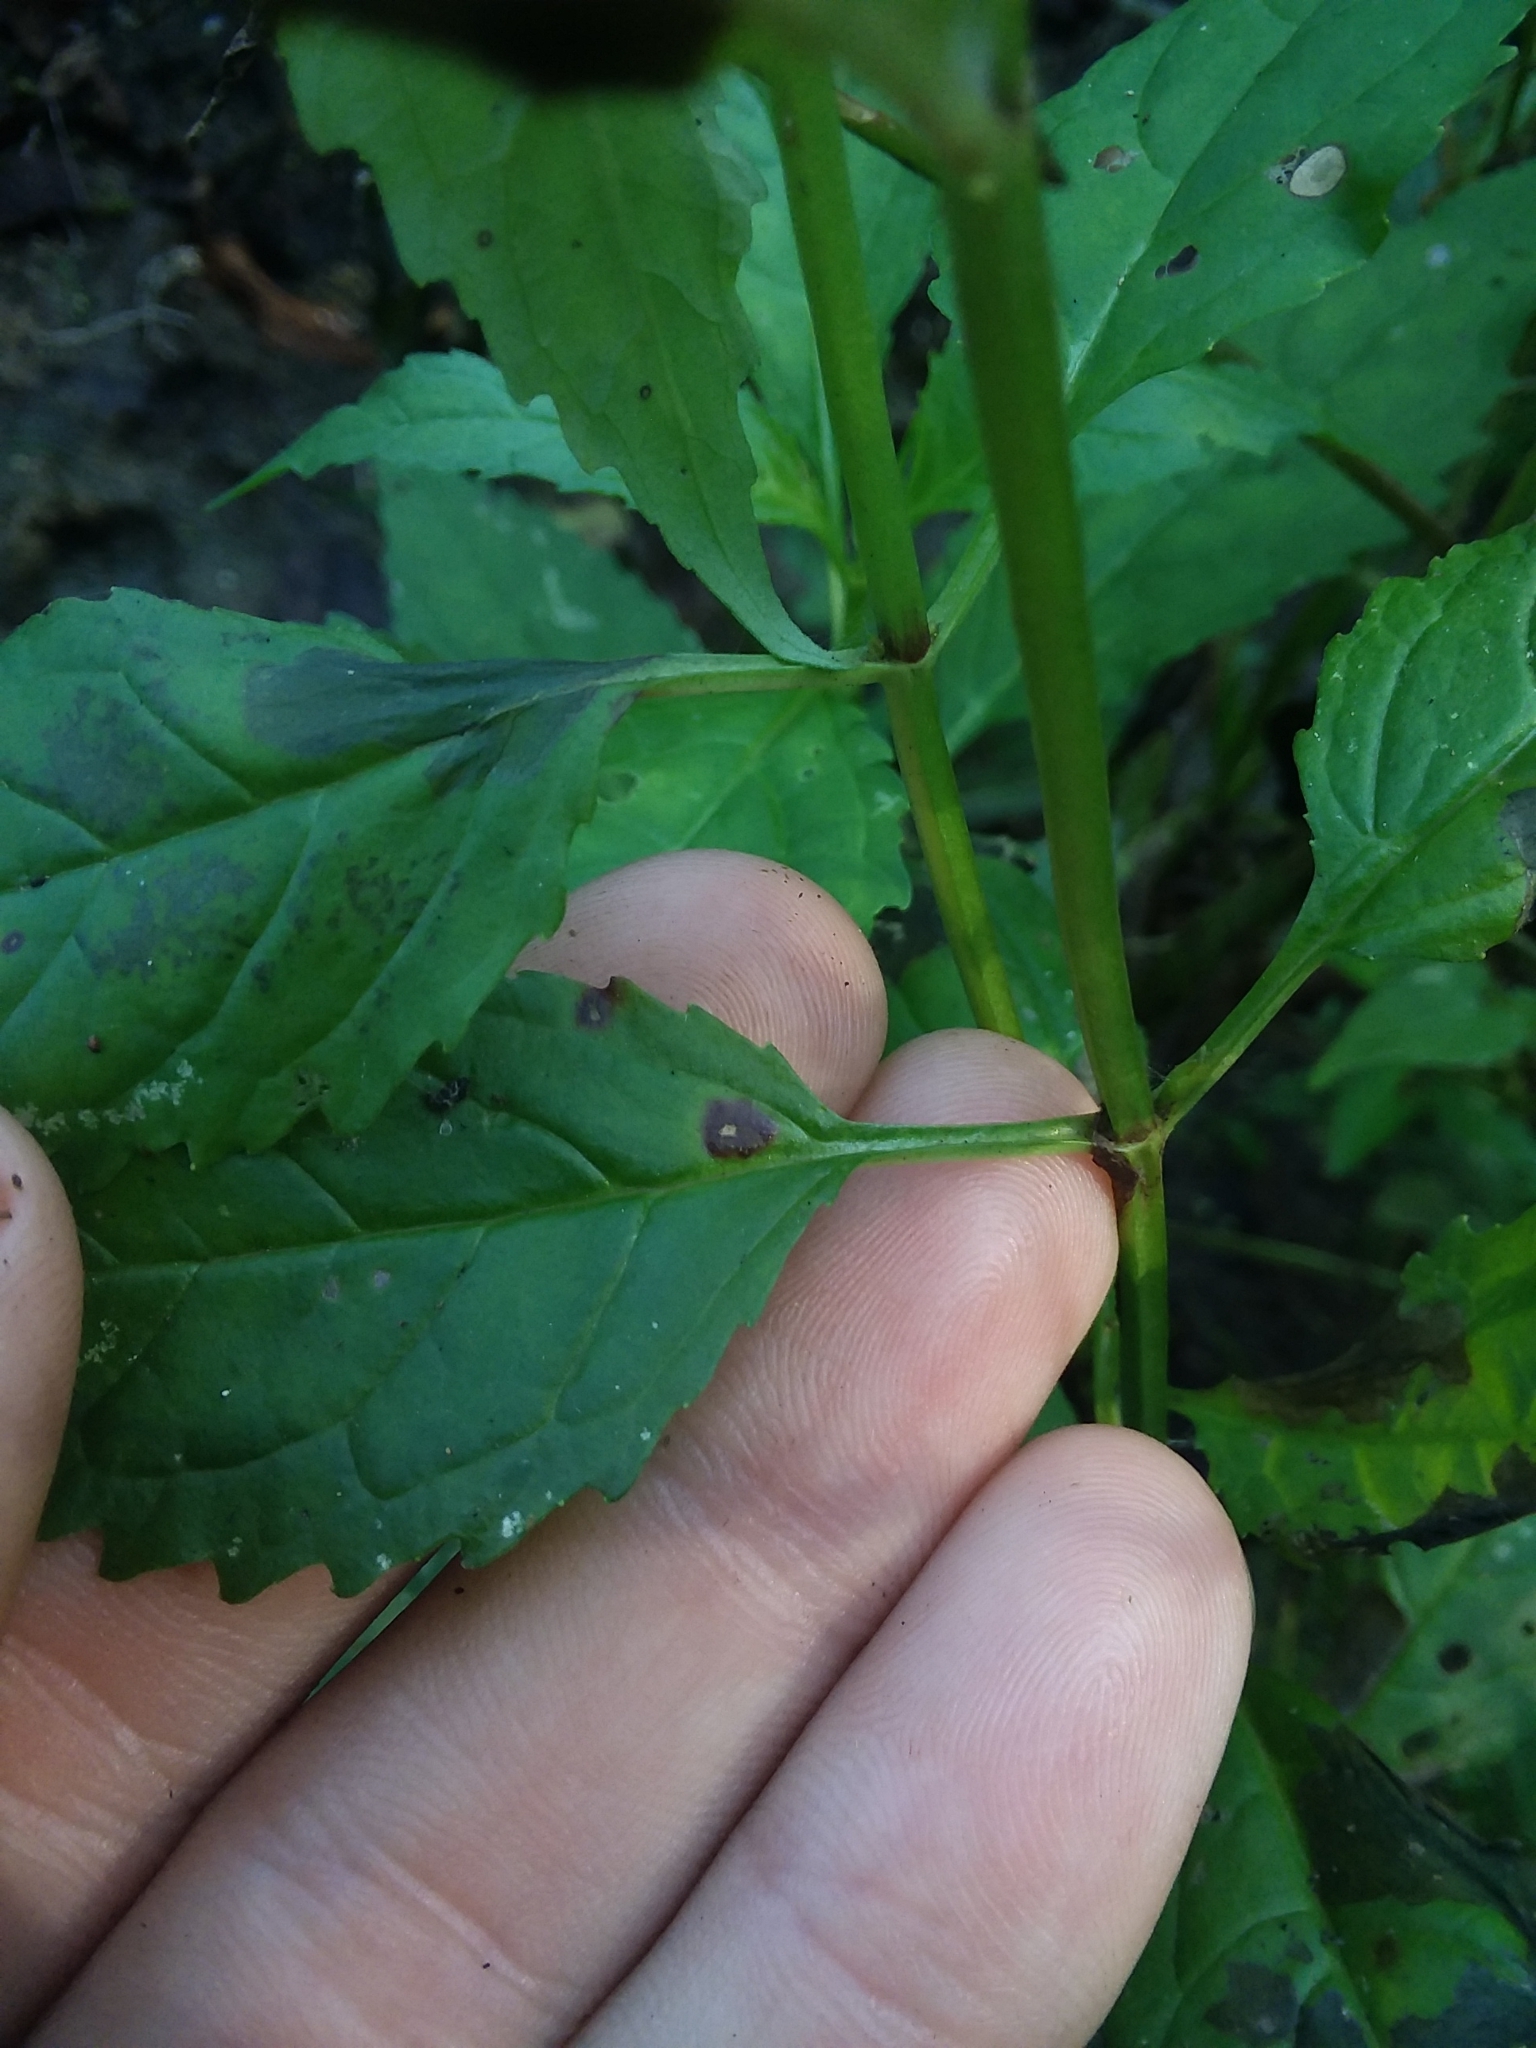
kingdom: Plantae
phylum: Tracheophyta
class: Magnoliopsida
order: Lamiales
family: Phrymaceae
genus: Mimulus
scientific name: Mimulus alatus
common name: Sharp-wing monkey-flower
